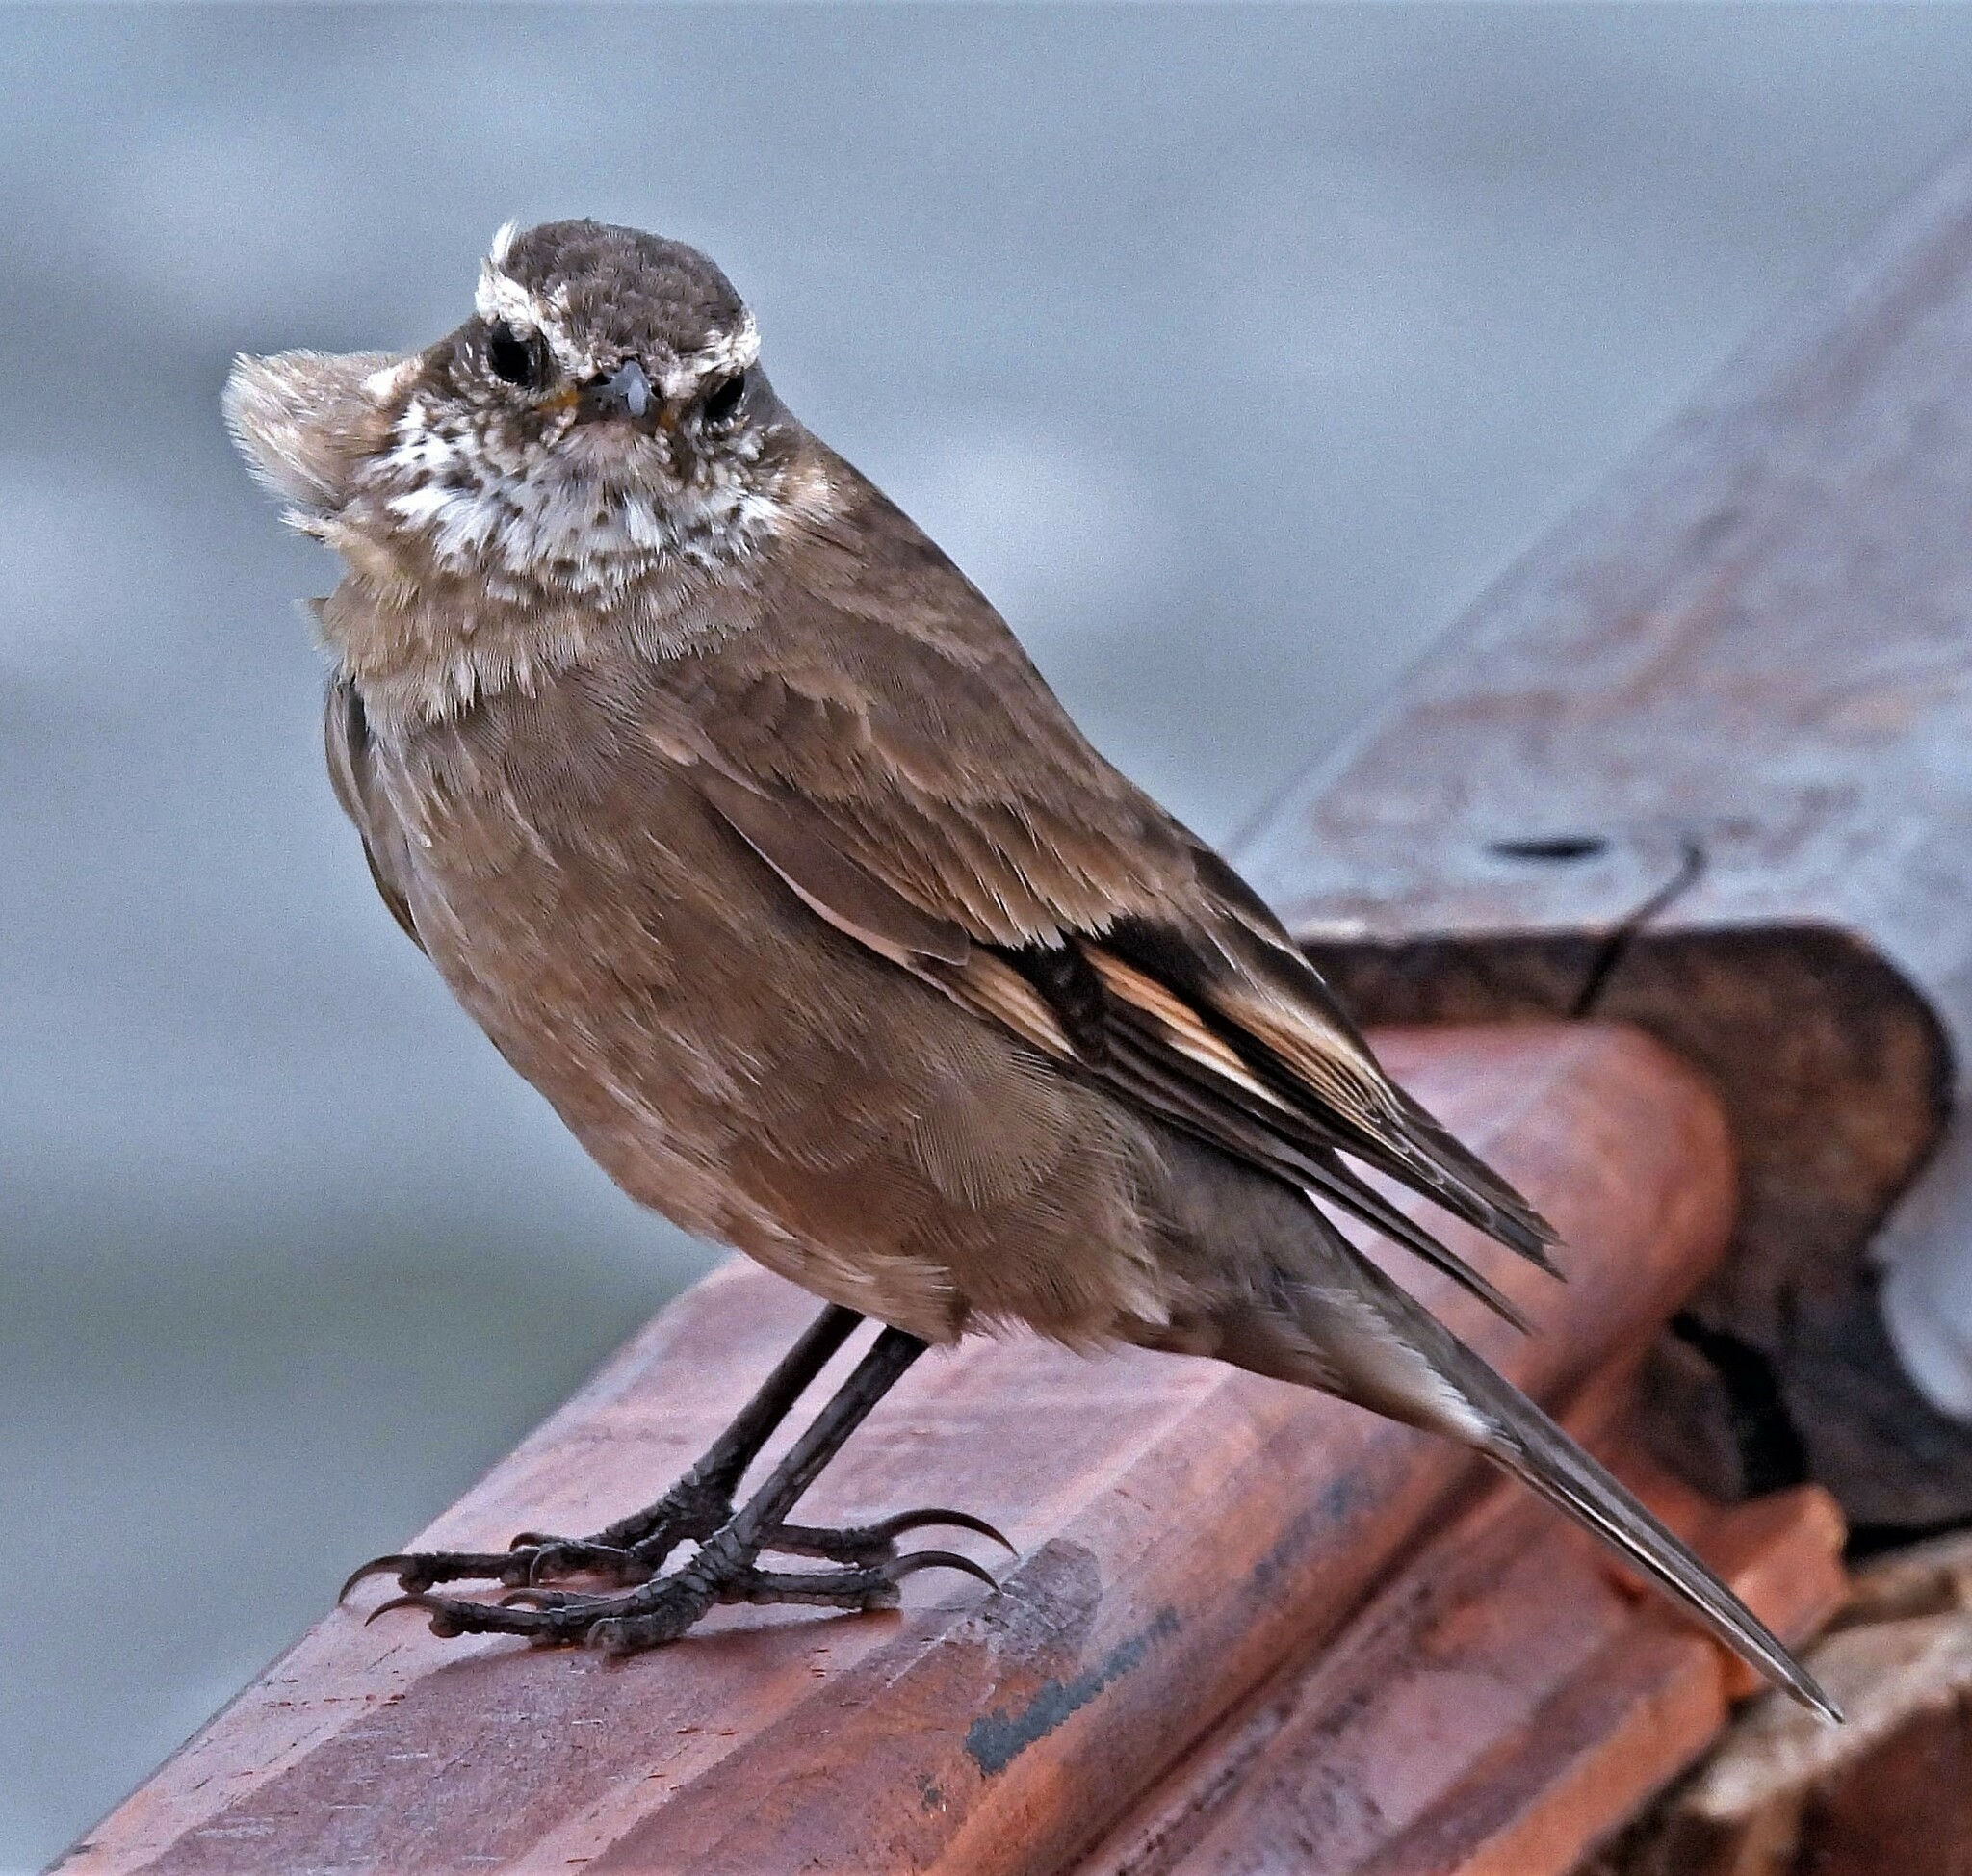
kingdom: Animalia
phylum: Chordata
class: Aves
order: Passeriformes
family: Furnariidae
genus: Cinclodes
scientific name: Cinclodes fuscus
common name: Buff-winged cinclodes
